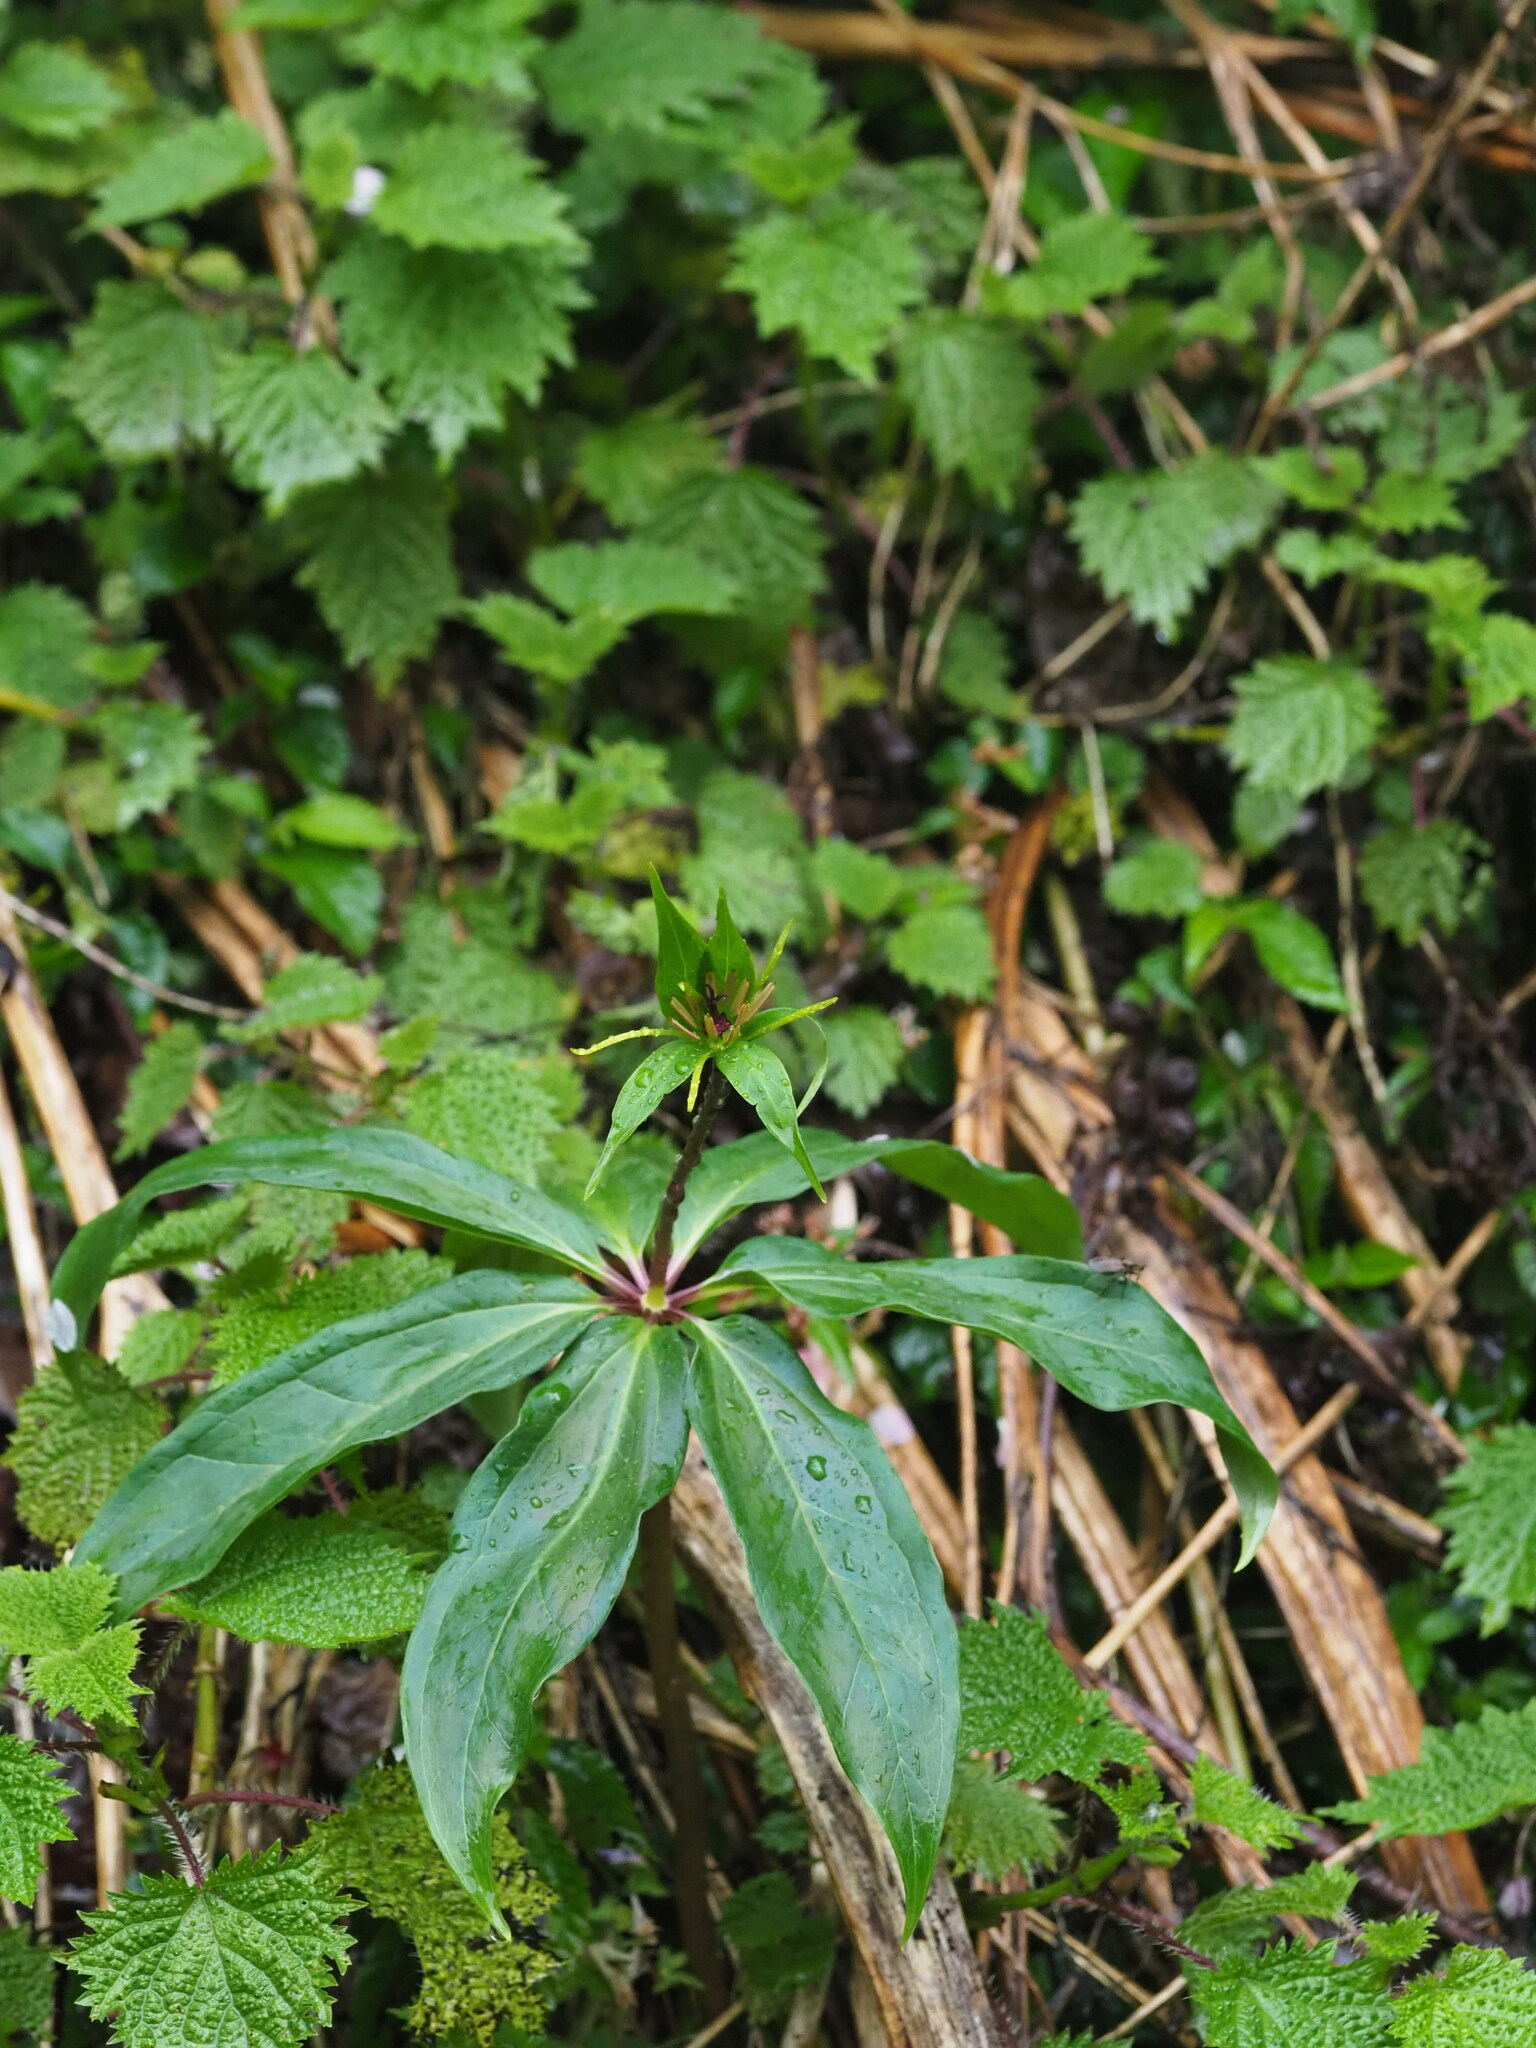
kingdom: Plantae
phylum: Tracheophyta
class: Liliopsida
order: Liliales
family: Melanthiaceae
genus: Paris
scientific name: Paris polyphylla
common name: Love apple
